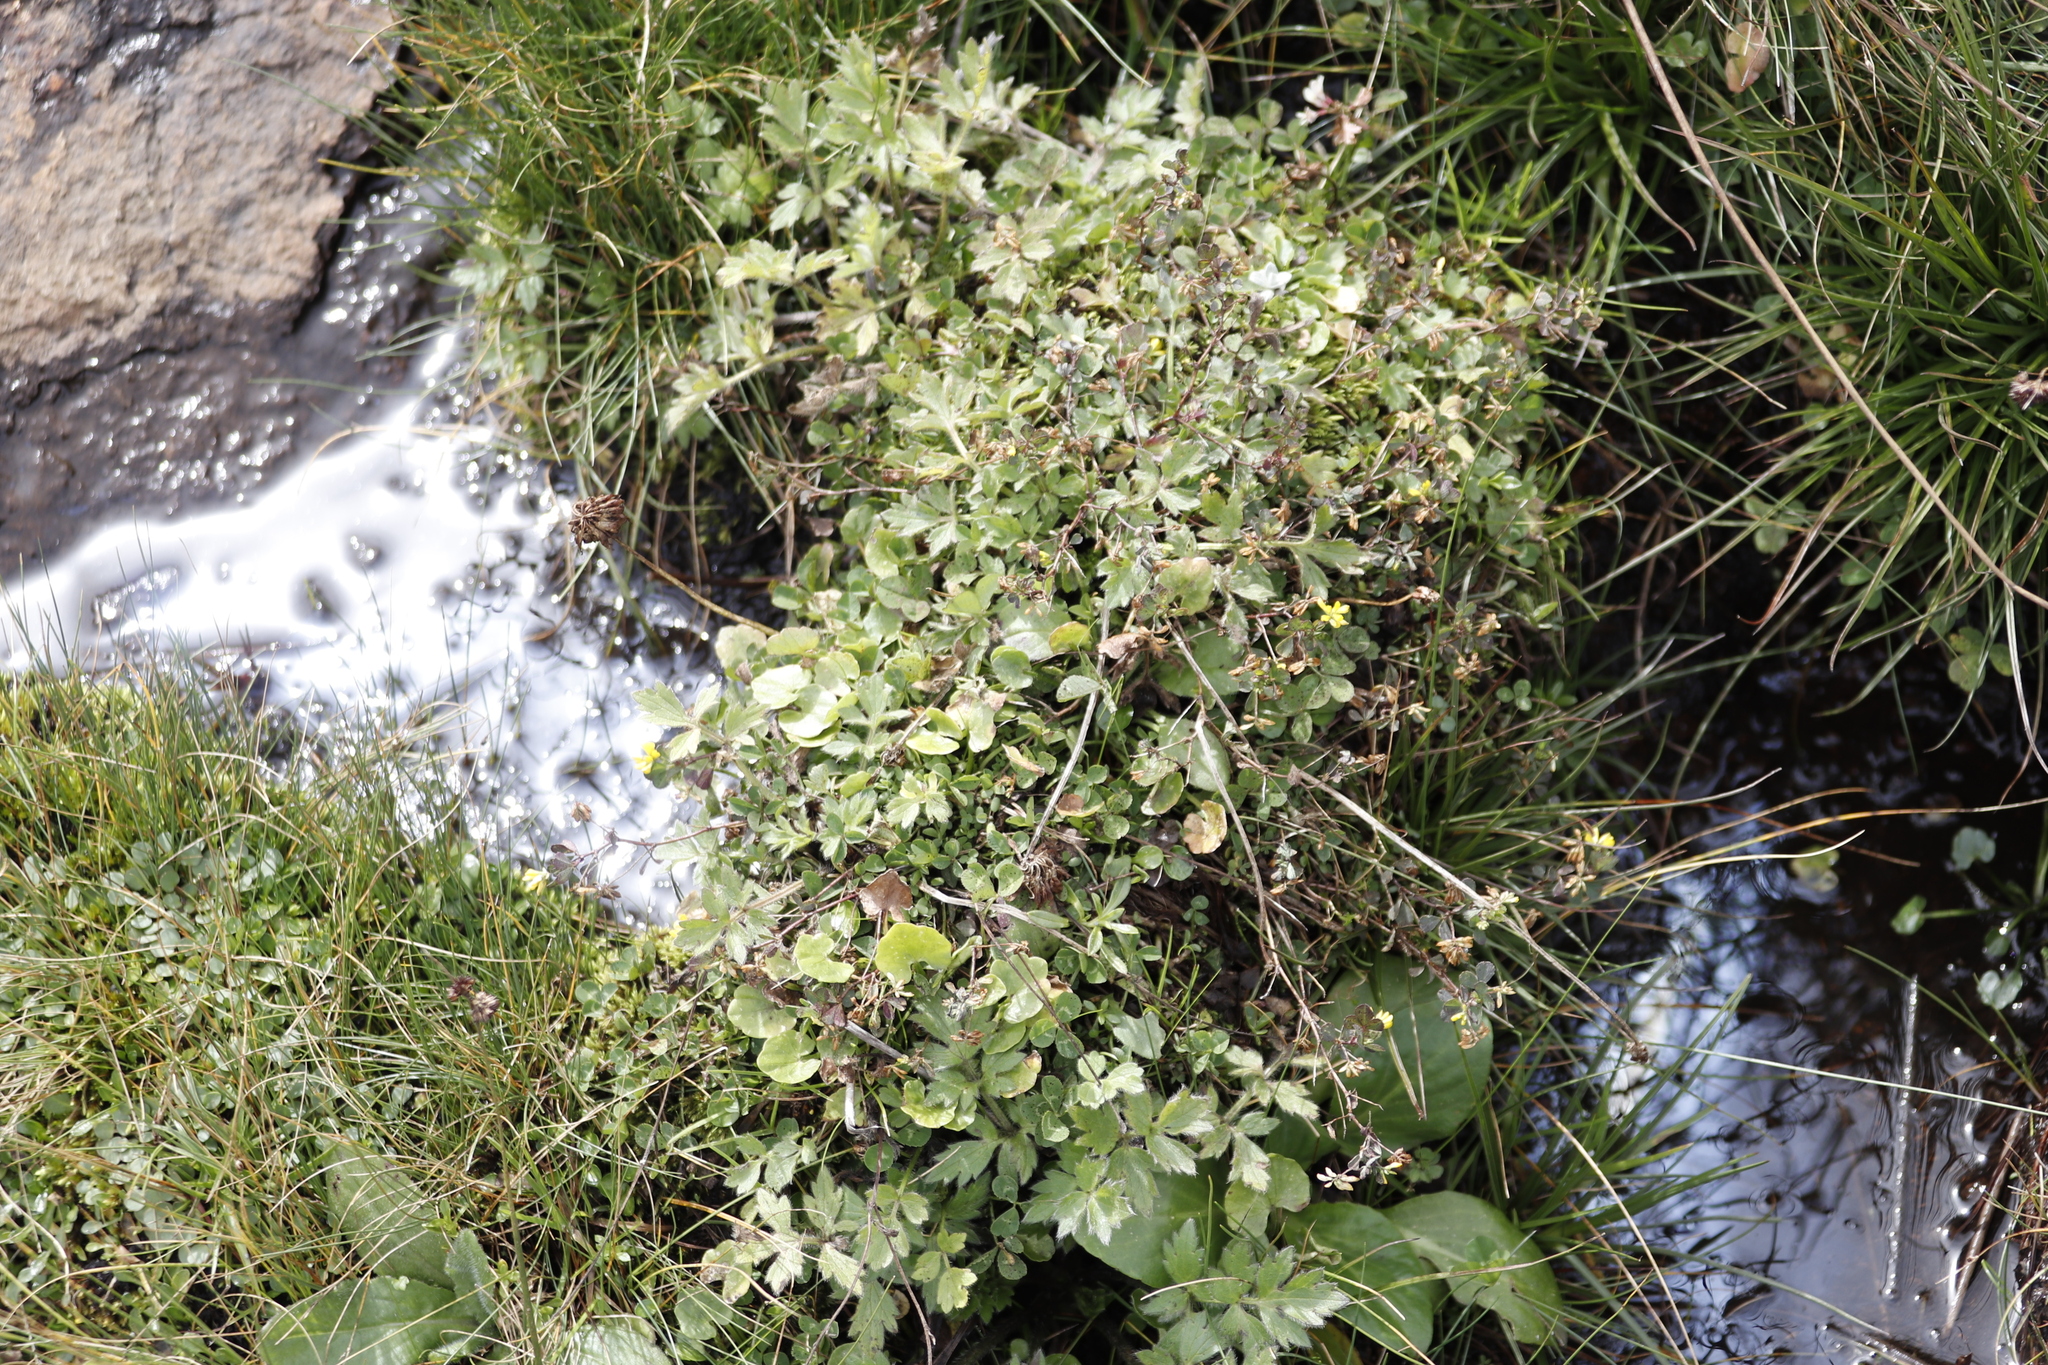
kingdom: Plantae
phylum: Tracheophyta
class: Magnoliopsida
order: Fabales
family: Fabaceae
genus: Trifolium
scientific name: Trifolium dubium
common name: Suckling clover
